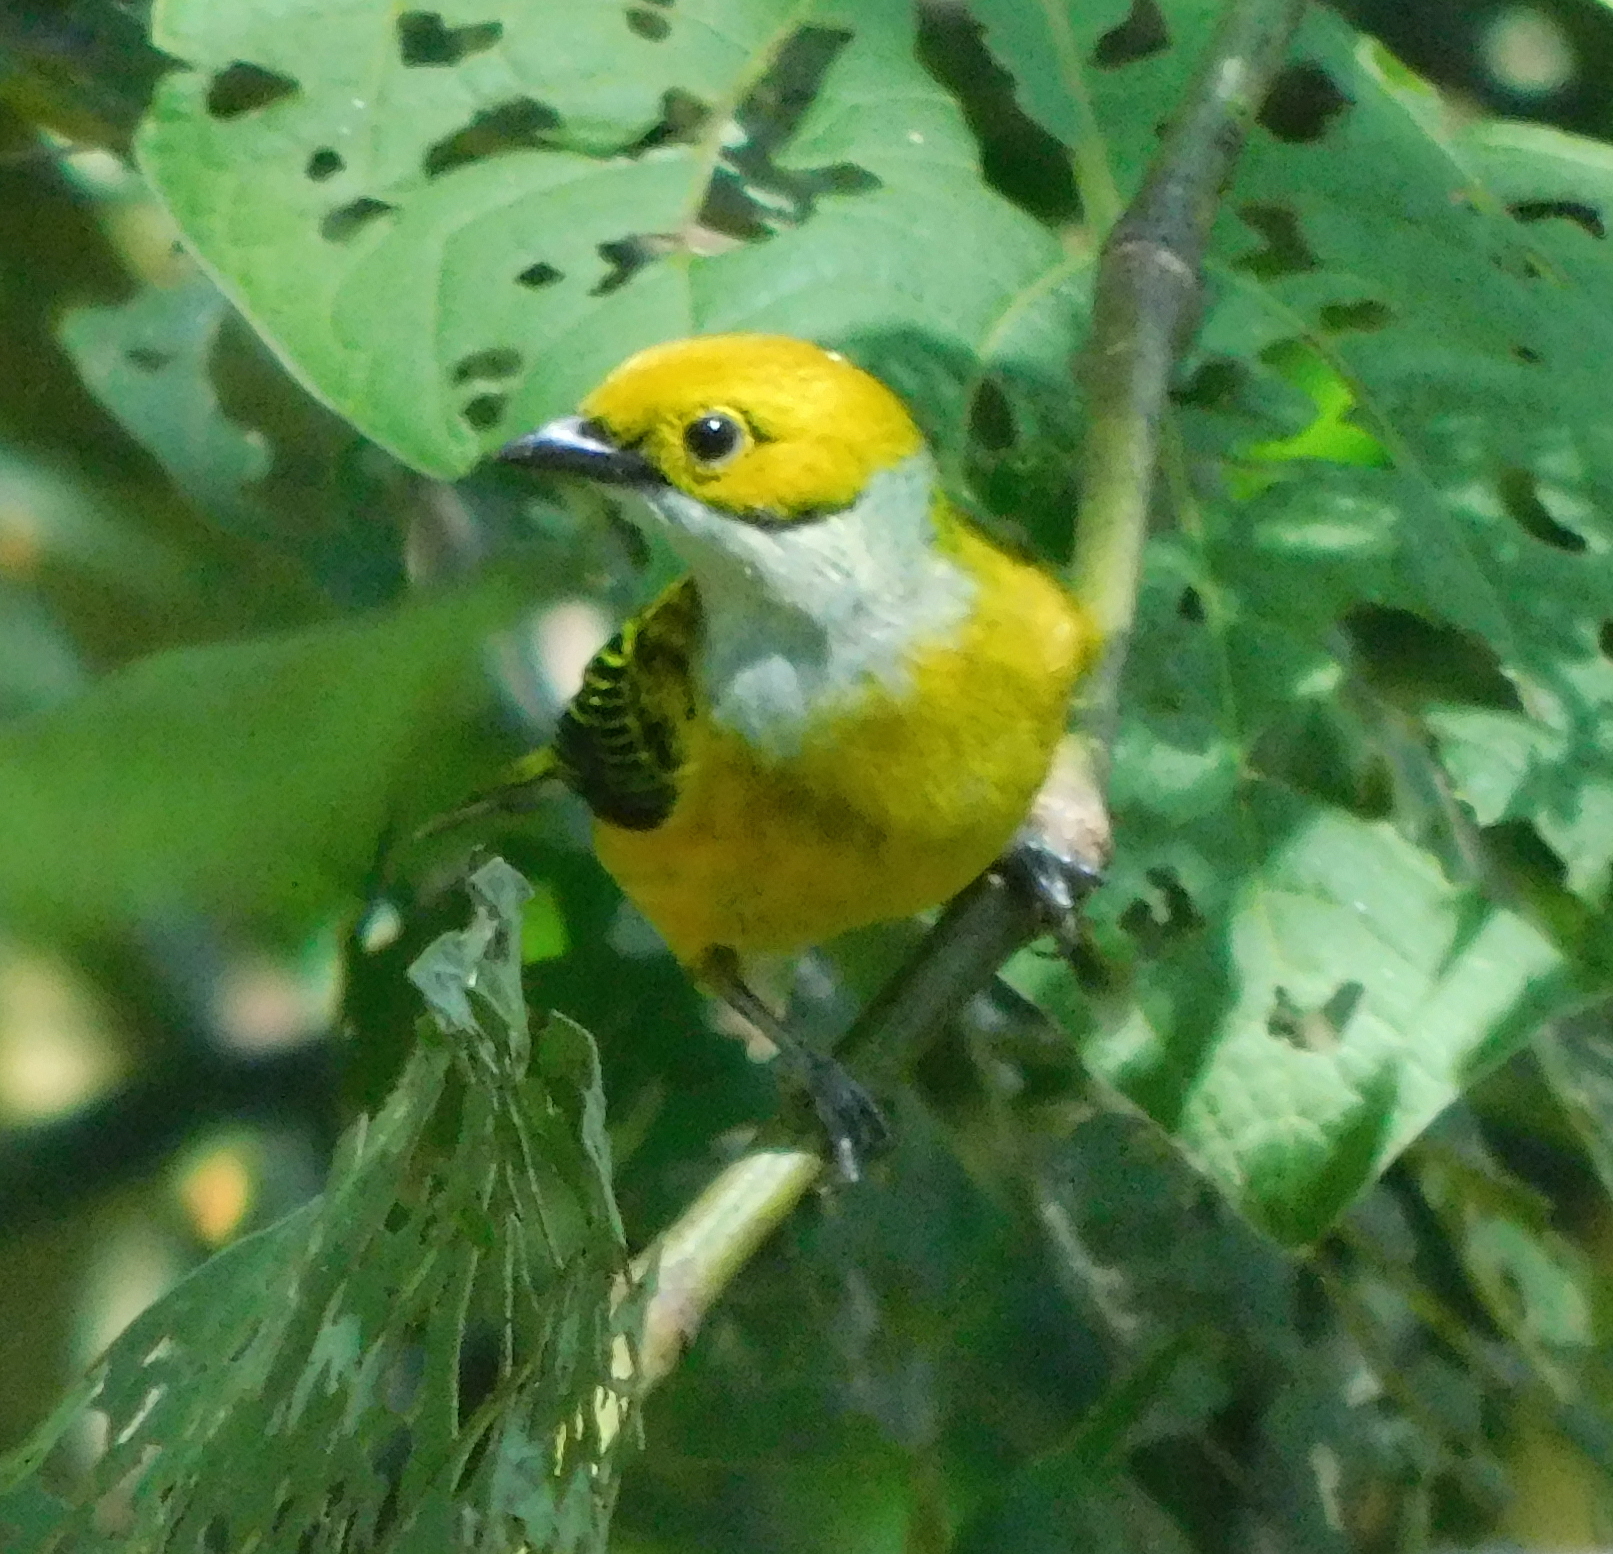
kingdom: Animalia
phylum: Chordata
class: Aves
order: Passeriformes
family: Thraupidae
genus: Tangara
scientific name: Tangara icterocephala
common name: Silver-throated tanager
